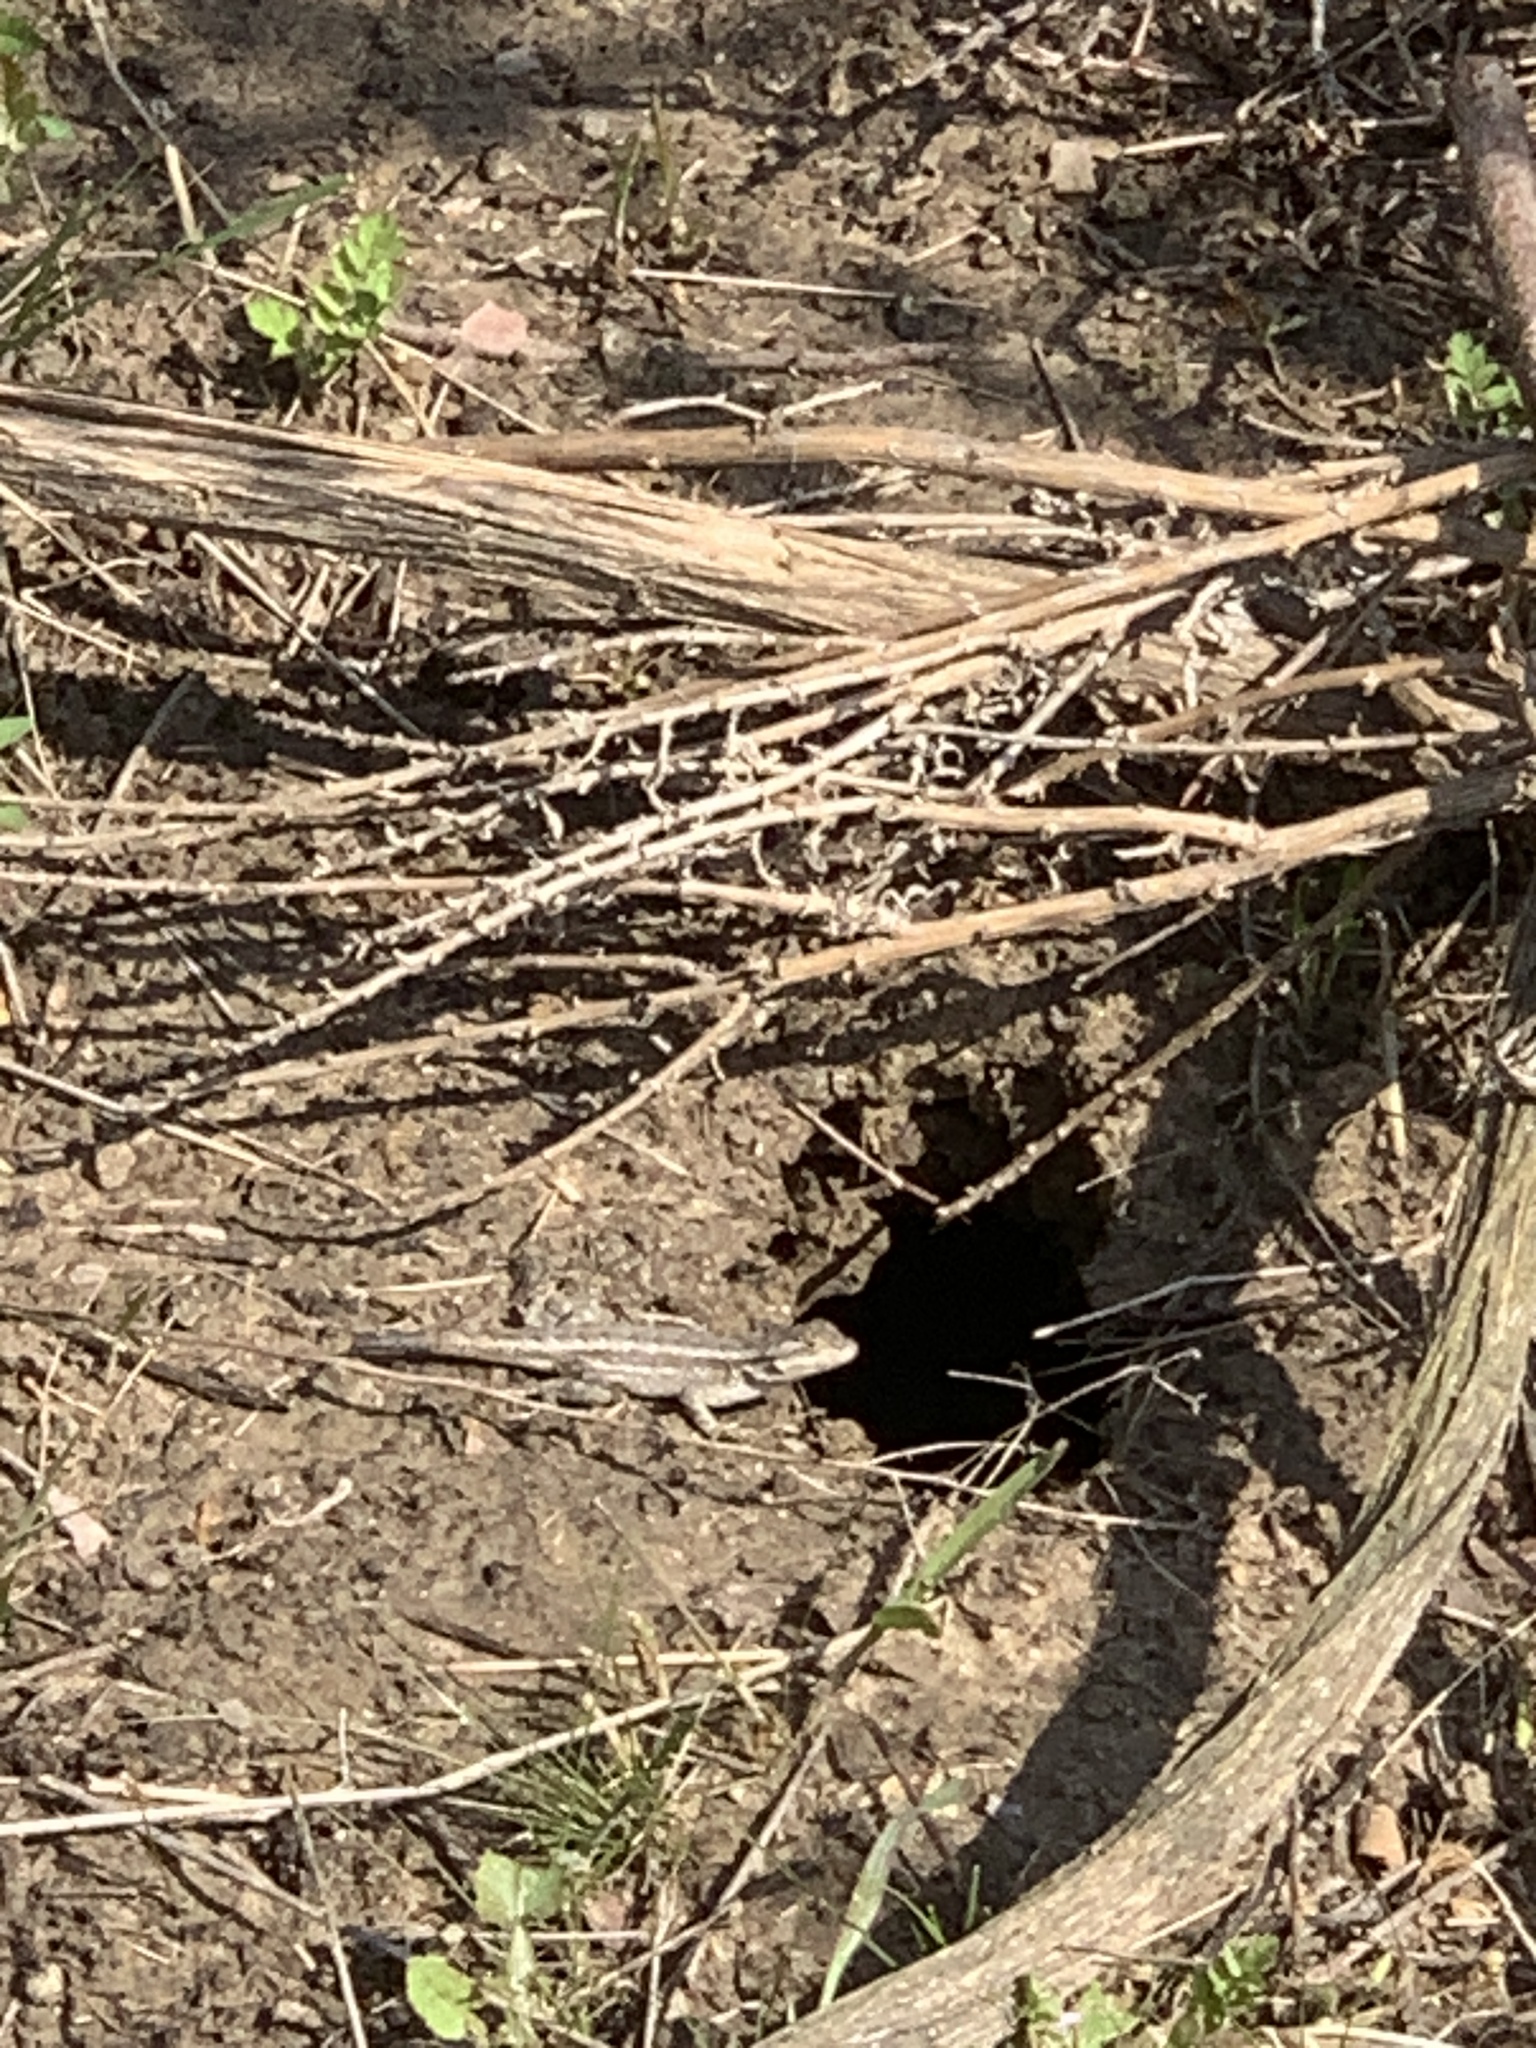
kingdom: Animalia
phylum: Chordata
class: Squamata
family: Phrynosomatidae
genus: Sceloporus
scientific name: Sceloporus occidentalis
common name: Western fence lizard
